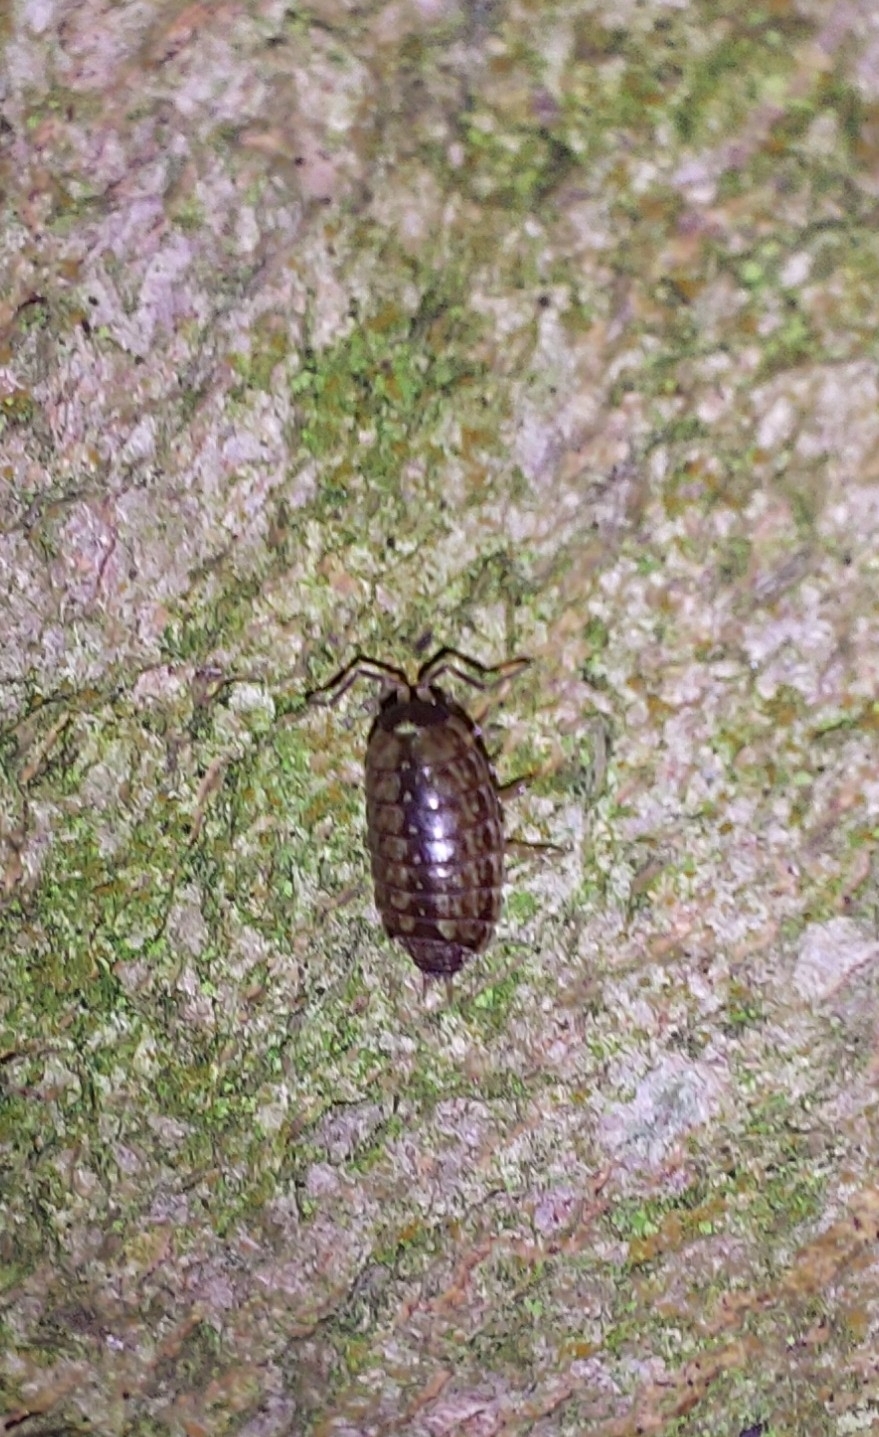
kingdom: Animalia
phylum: Arthropoda
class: Malacostraca
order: Isopoda
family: Philosciidae
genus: Philoscia
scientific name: Philoscia muscorum
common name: Common striped woodlouse
